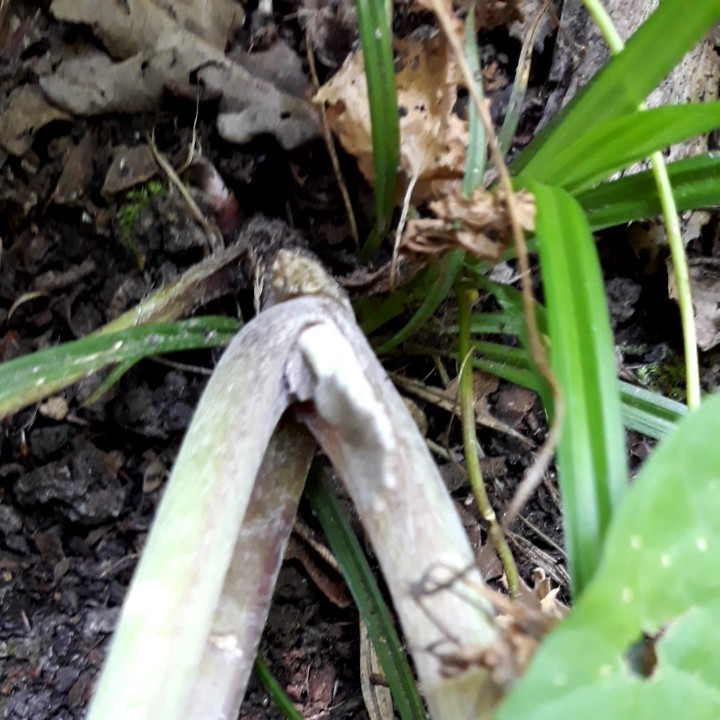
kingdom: Plantae
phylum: Tracheophyta
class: Magnoliopsida
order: Asterales
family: Asteraceae
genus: Tussilago
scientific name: Tussilago farfara
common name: Coltsfoot
